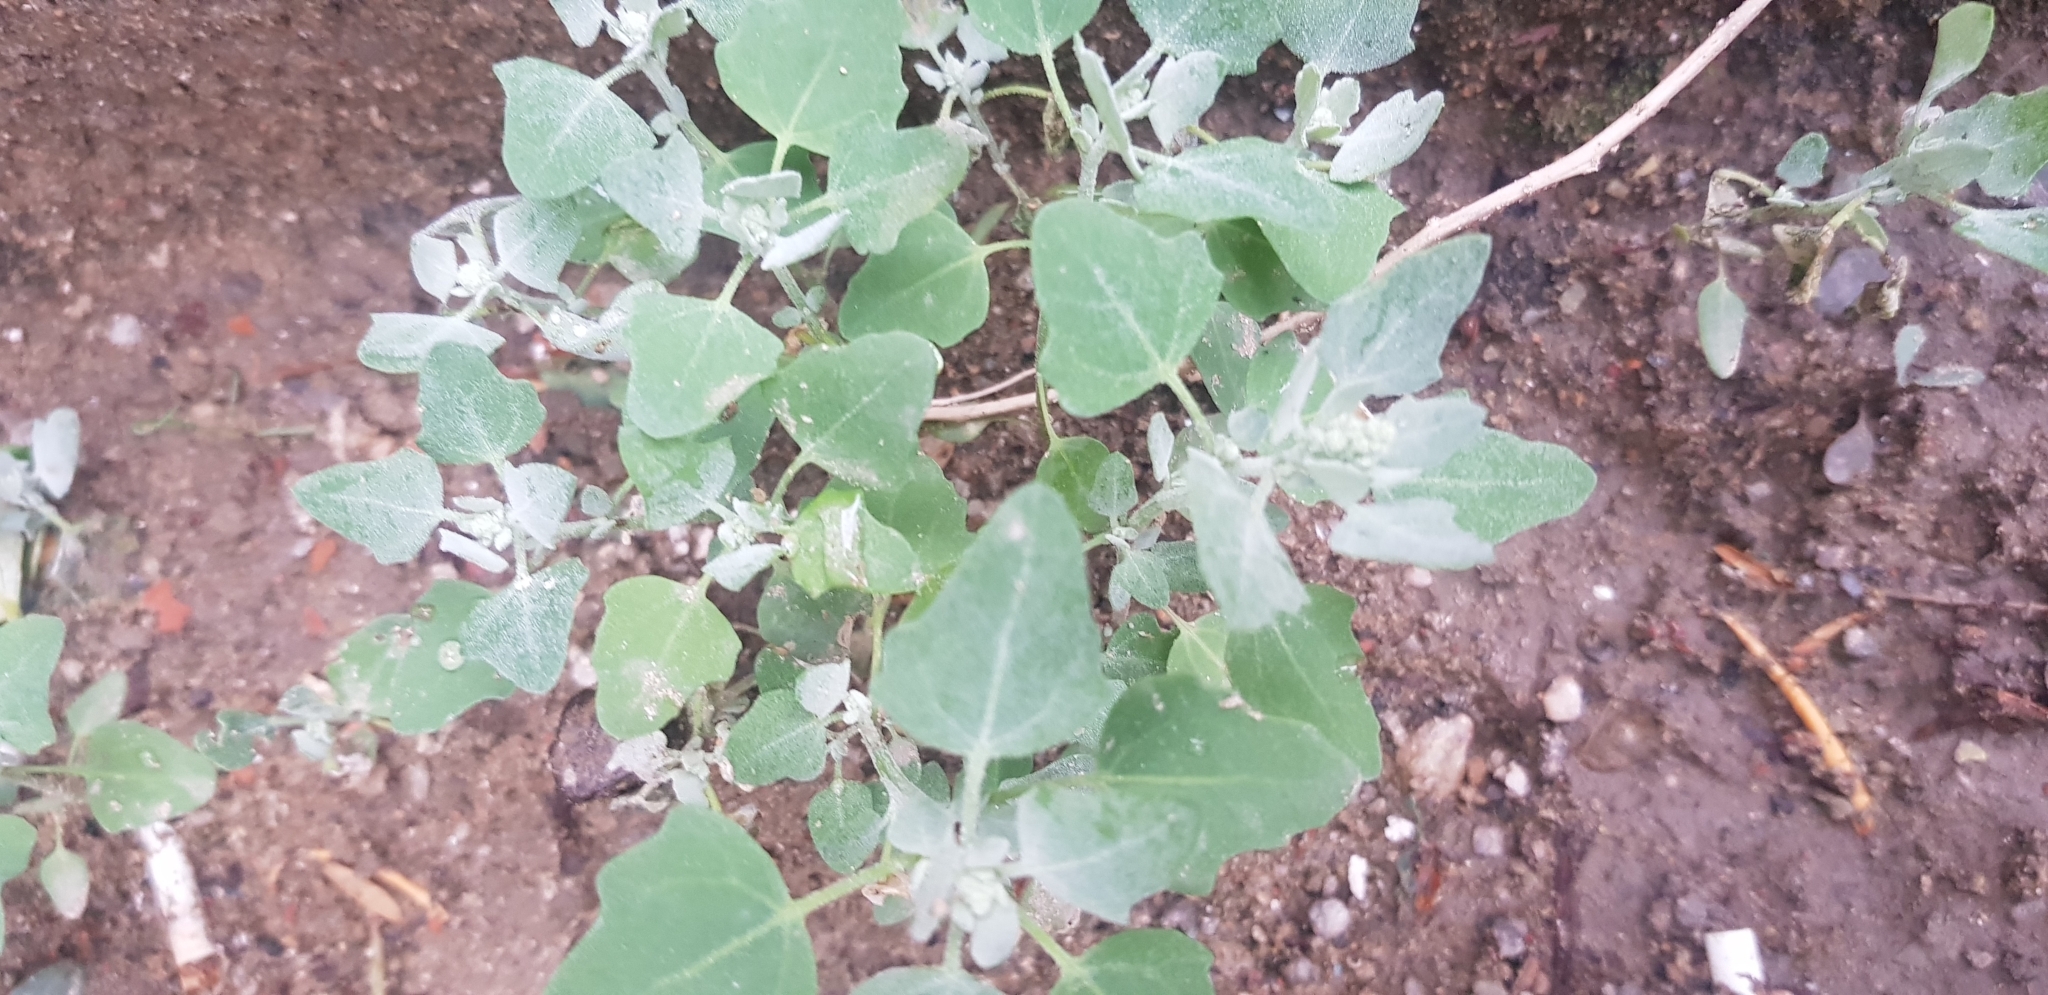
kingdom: Plantae
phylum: Tracheophyta
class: Magnoliopsida
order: Caryophyllales
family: Amaranthaceae
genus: Chenopodium
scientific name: Chenopodium album
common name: Fat-hen
